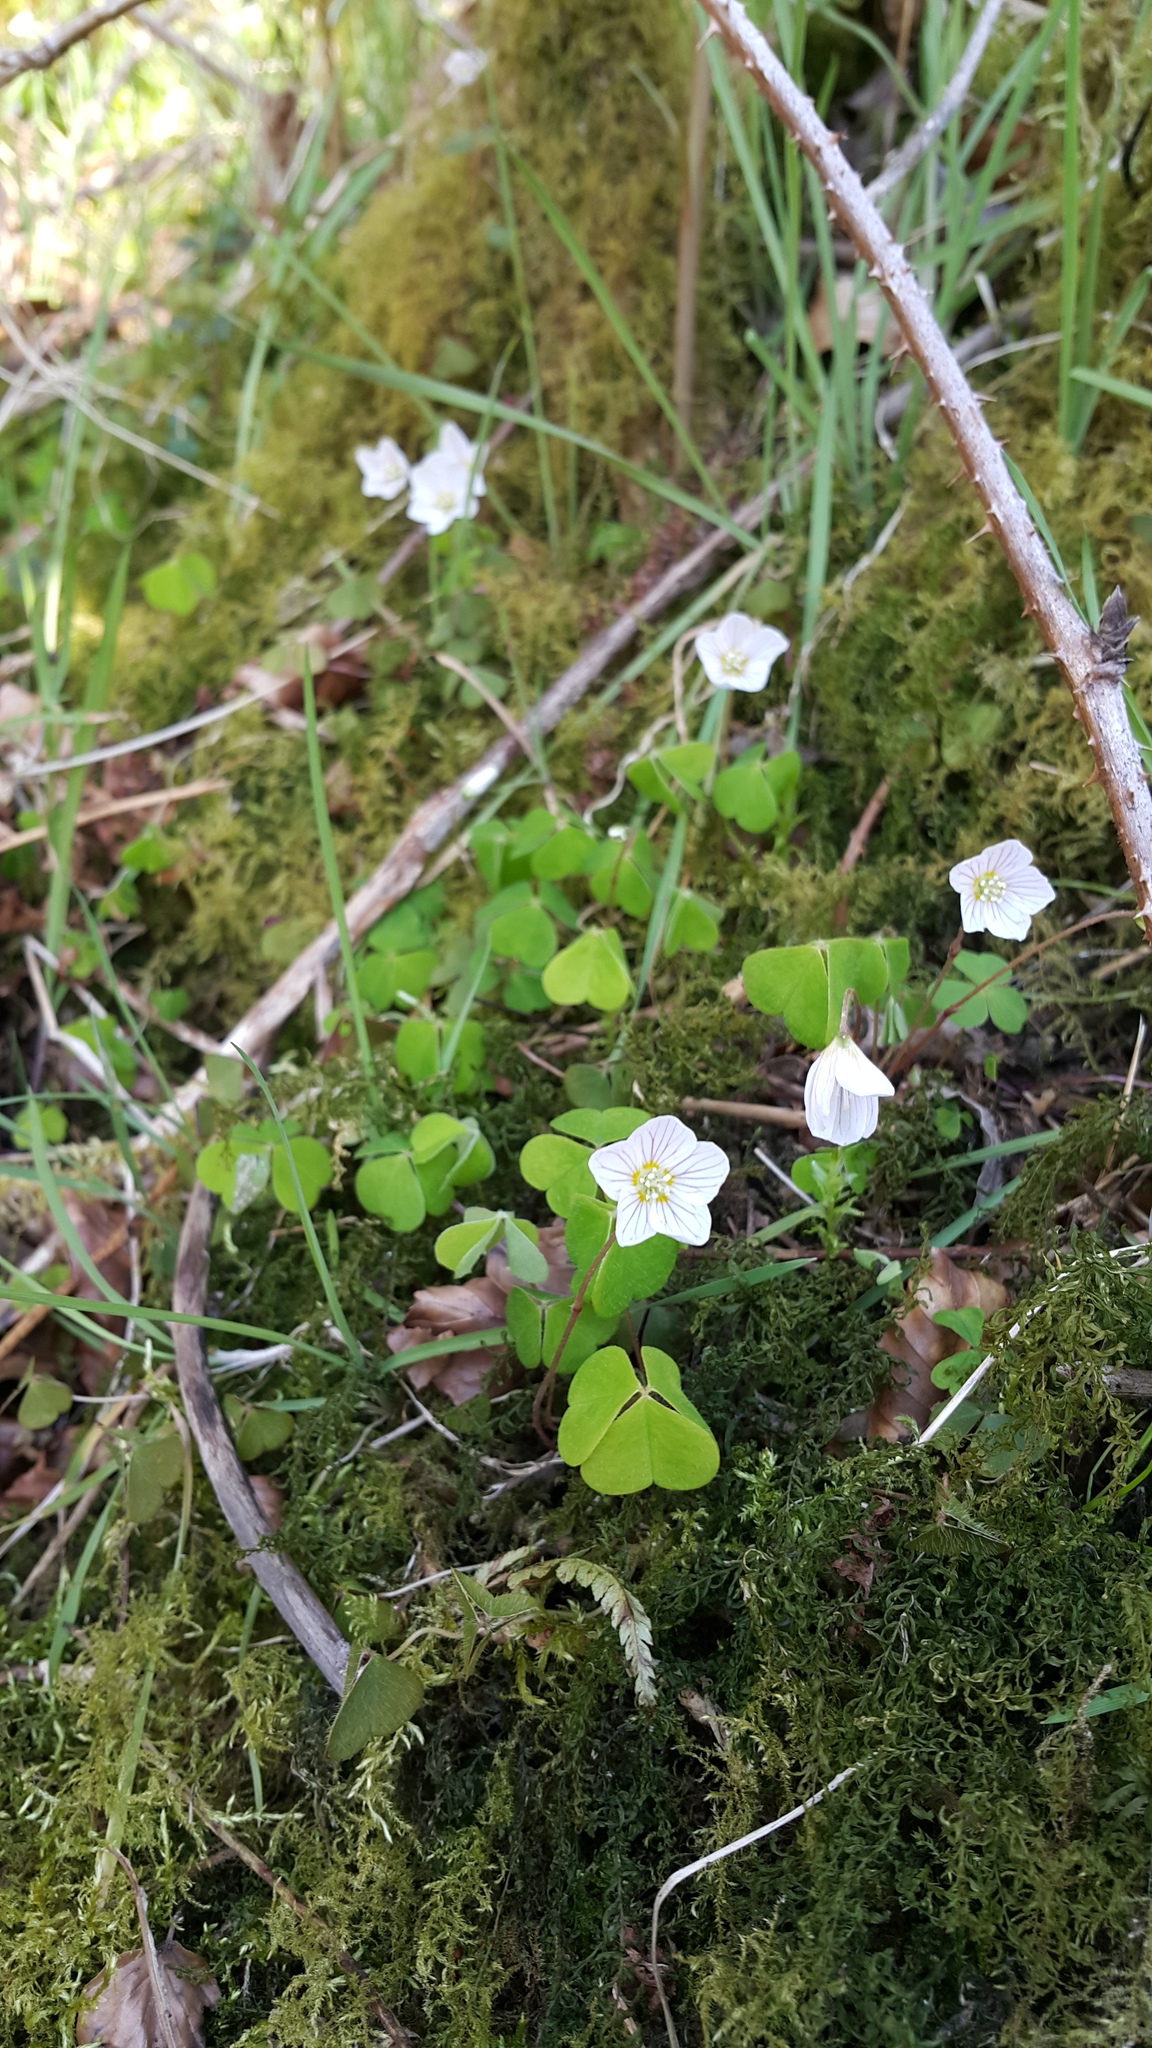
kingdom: Plantae
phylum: Tracheophyta
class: Magnoliopsida
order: Oxalidales
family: Oxalidaceae
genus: Oxalis
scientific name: Oxalis acetosella
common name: Wood-sorrel
